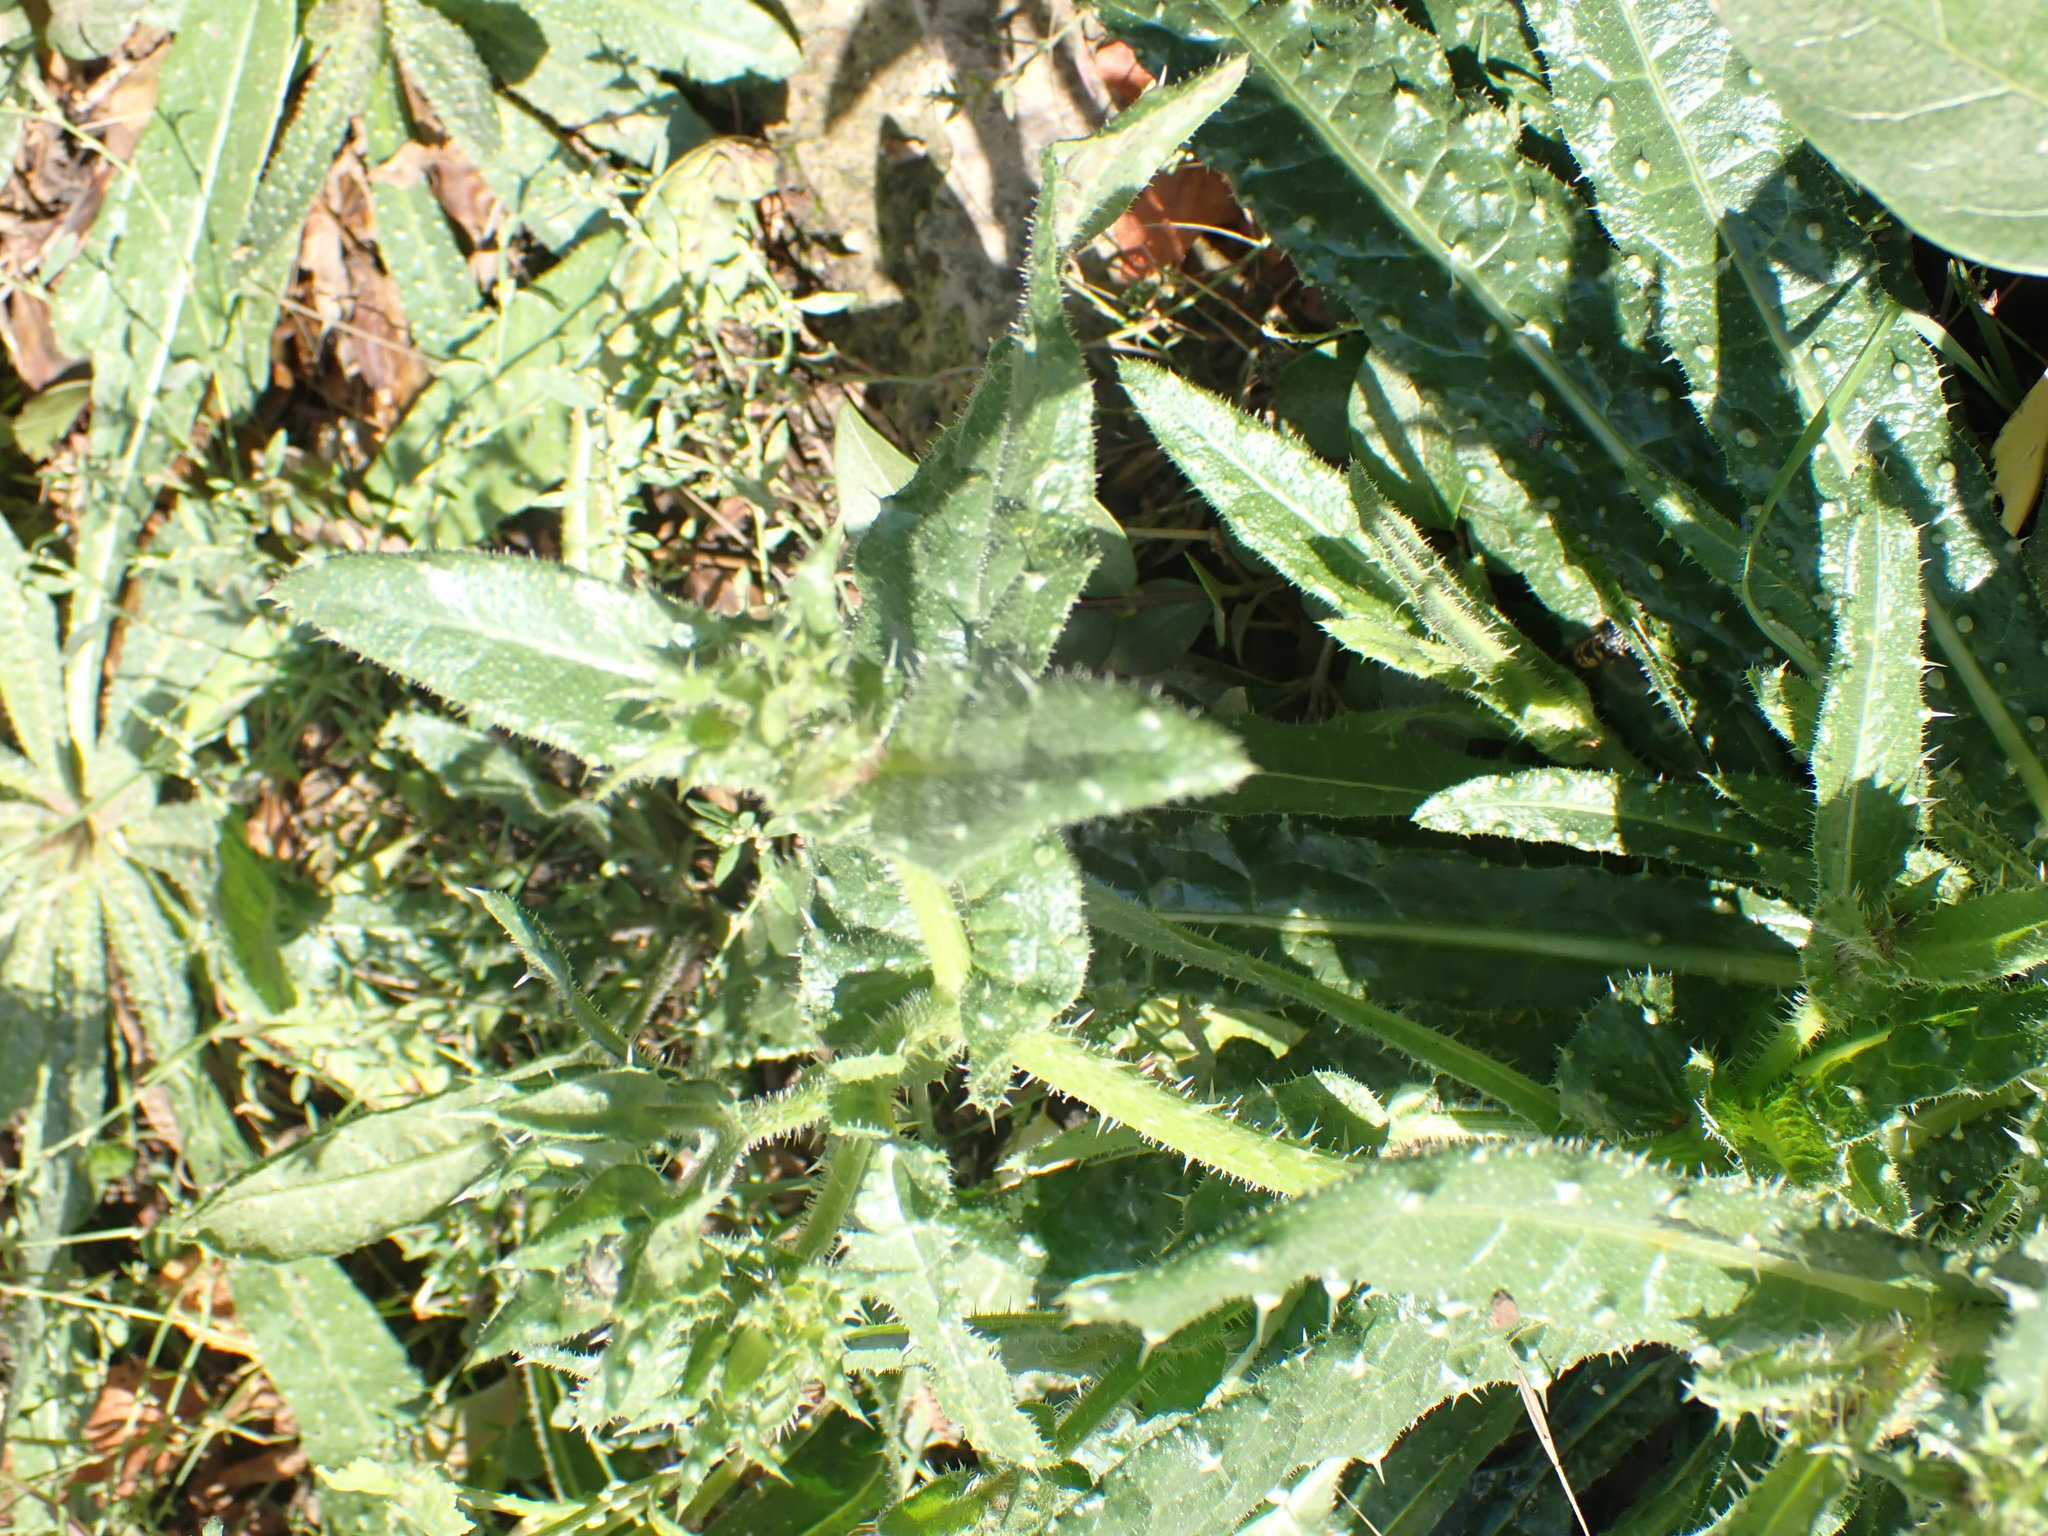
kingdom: Plantae
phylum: Tracheophyta
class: Magnoliopsida
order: Asterales
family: Asteraceae
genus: Helminthotheca
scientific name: Helminthotheca echioides
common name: Ox-tongue
